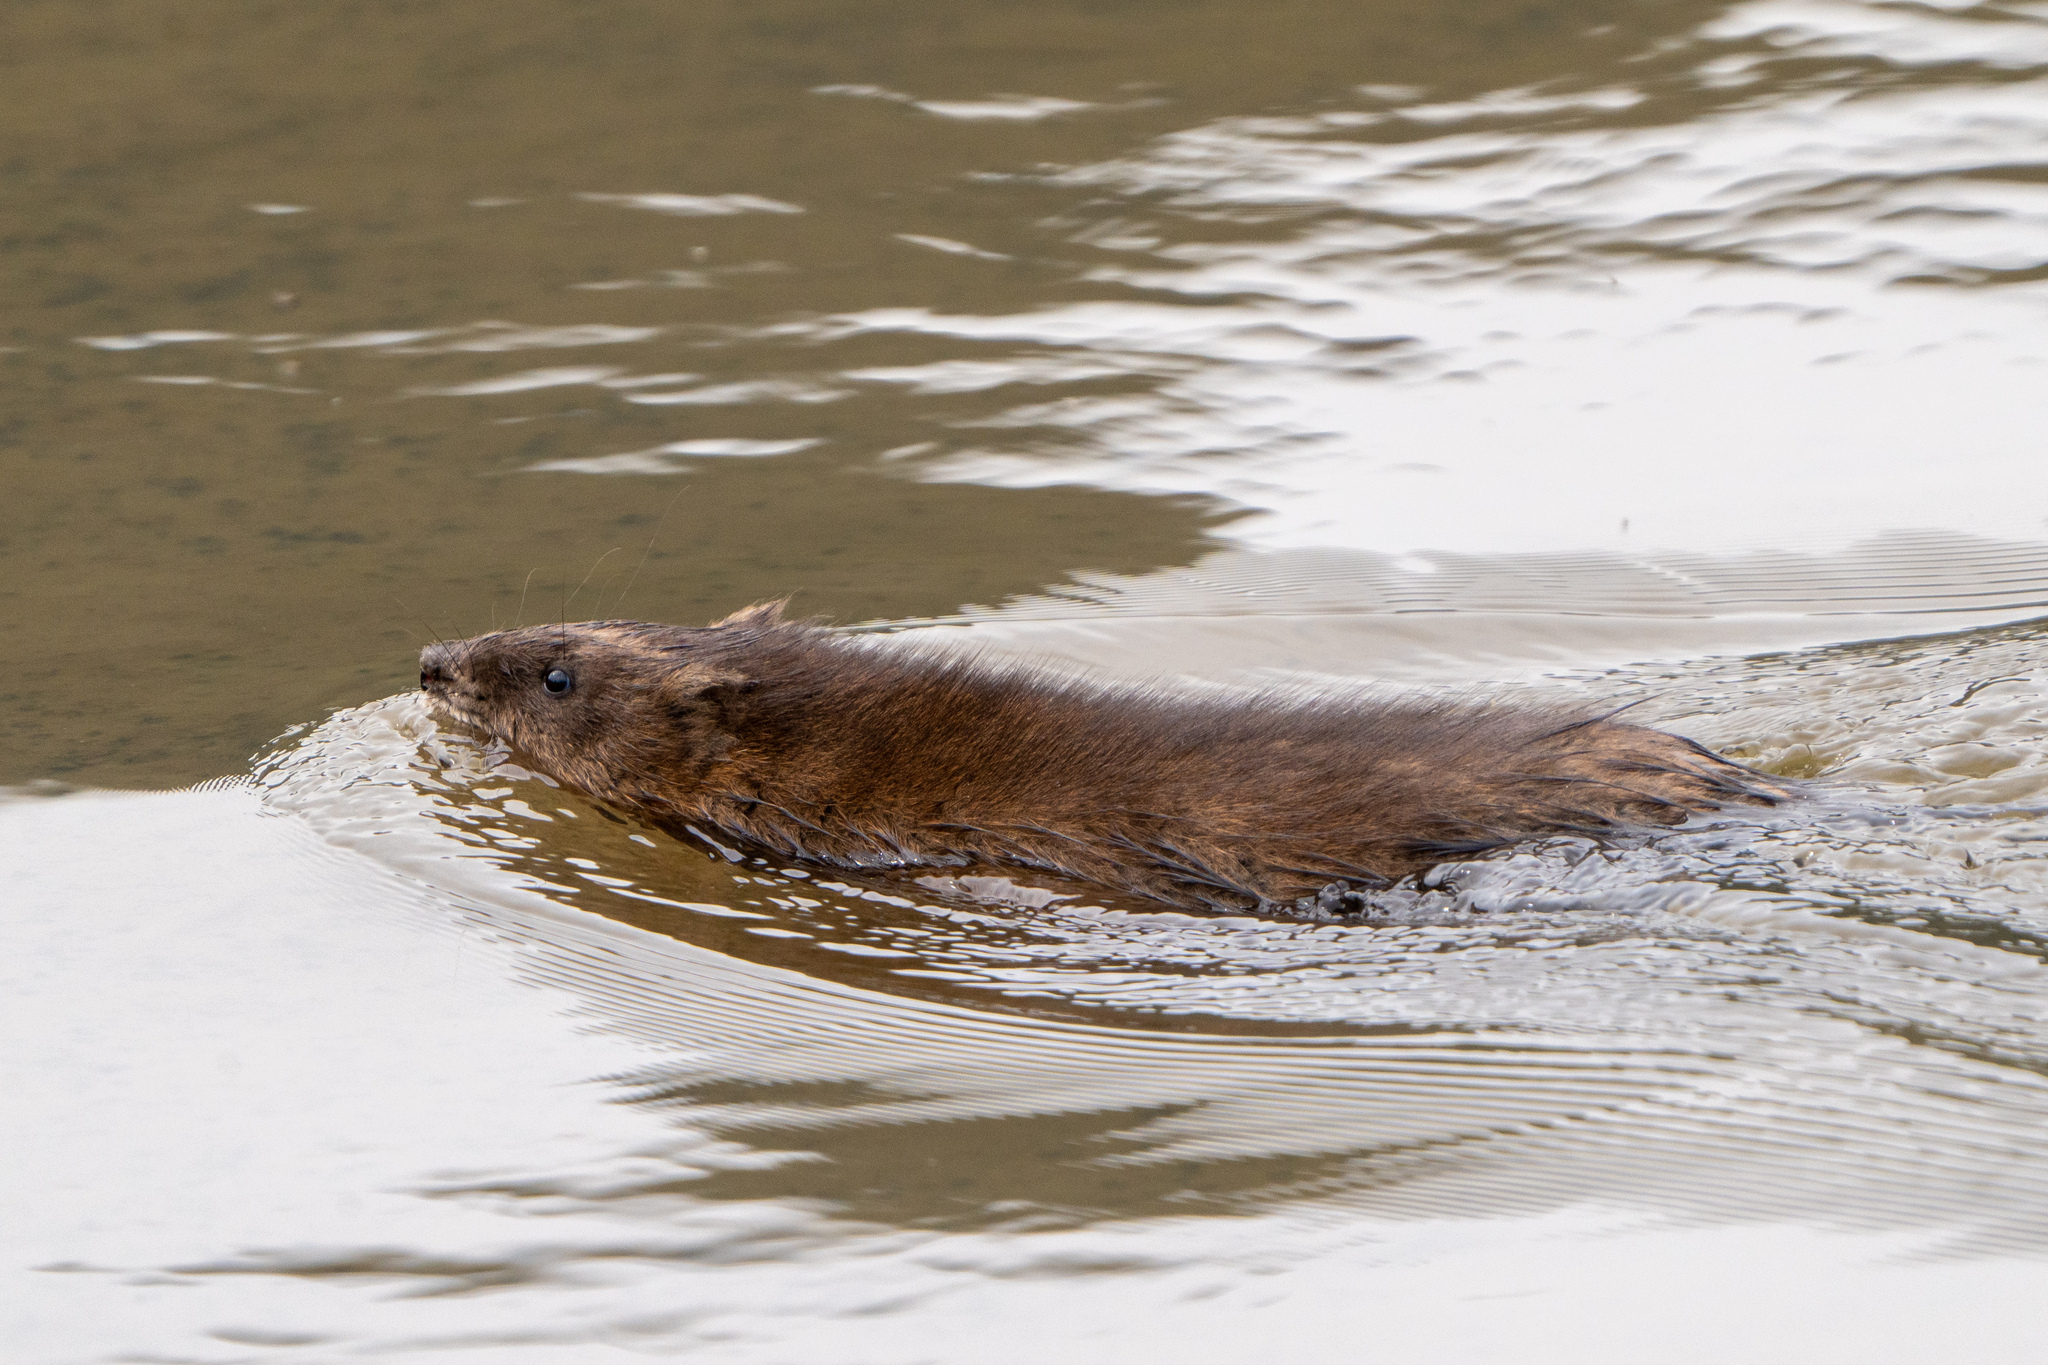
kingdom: Animalia
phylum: Chordata
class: Mammalia
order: Rodentia
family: Cricetidae
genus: Ondatra
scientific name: Ondatra zibethicus
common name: Muskrat
